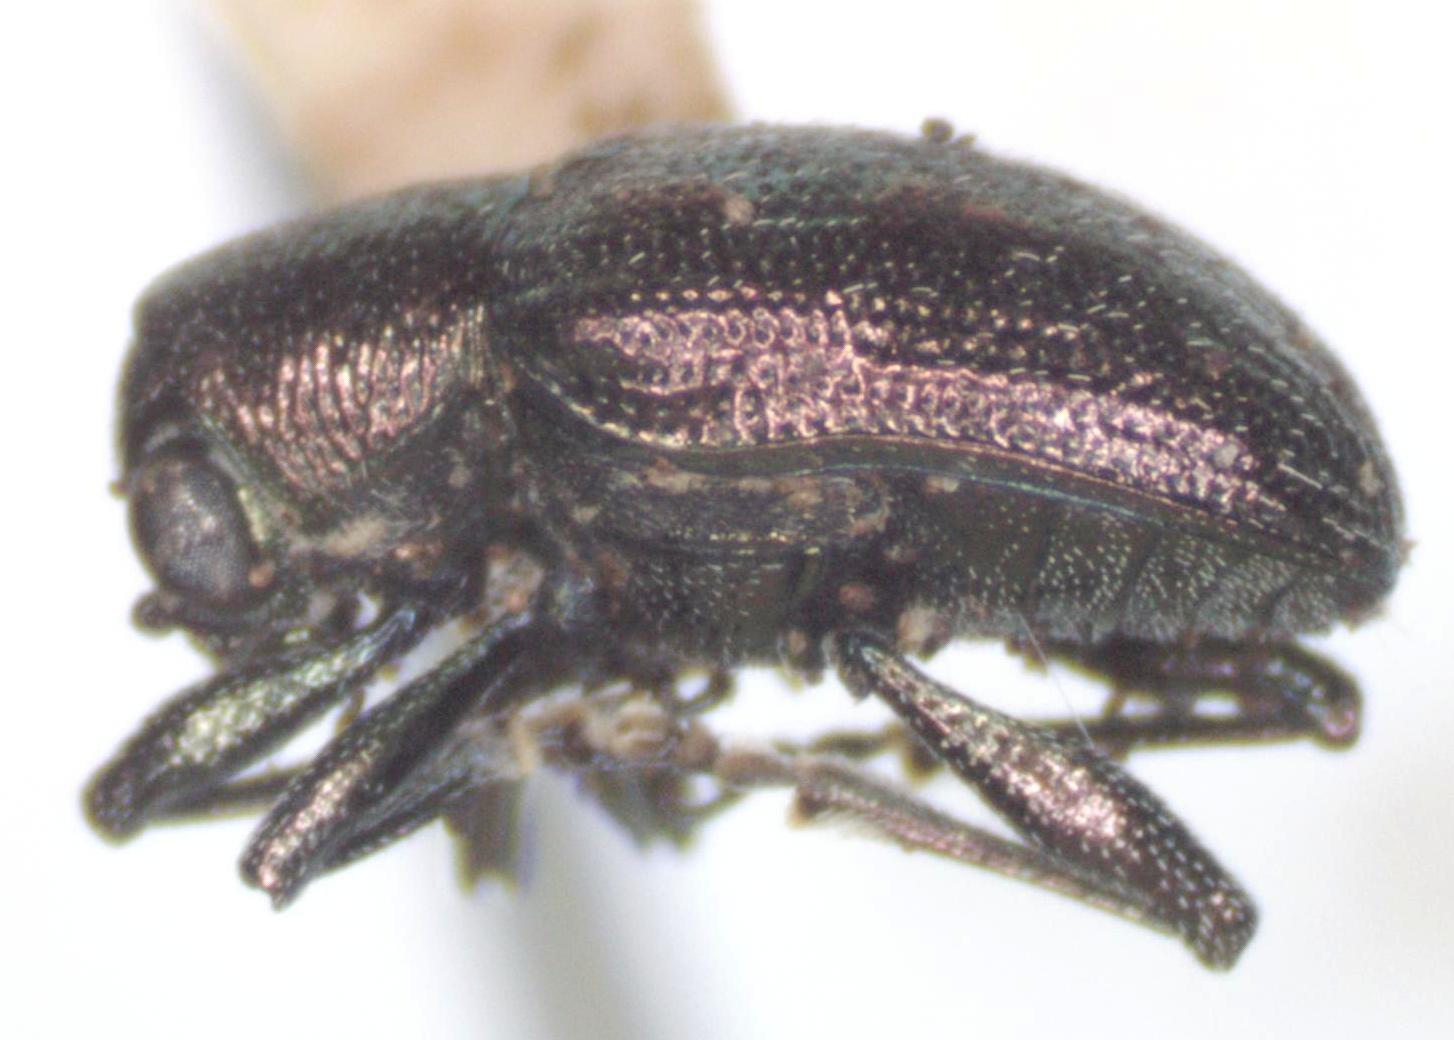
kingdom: Animalia
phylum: Arthropoda
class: Insecta
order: Coleoptera
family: Chrysomelidae
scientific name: Chrysomelidae
